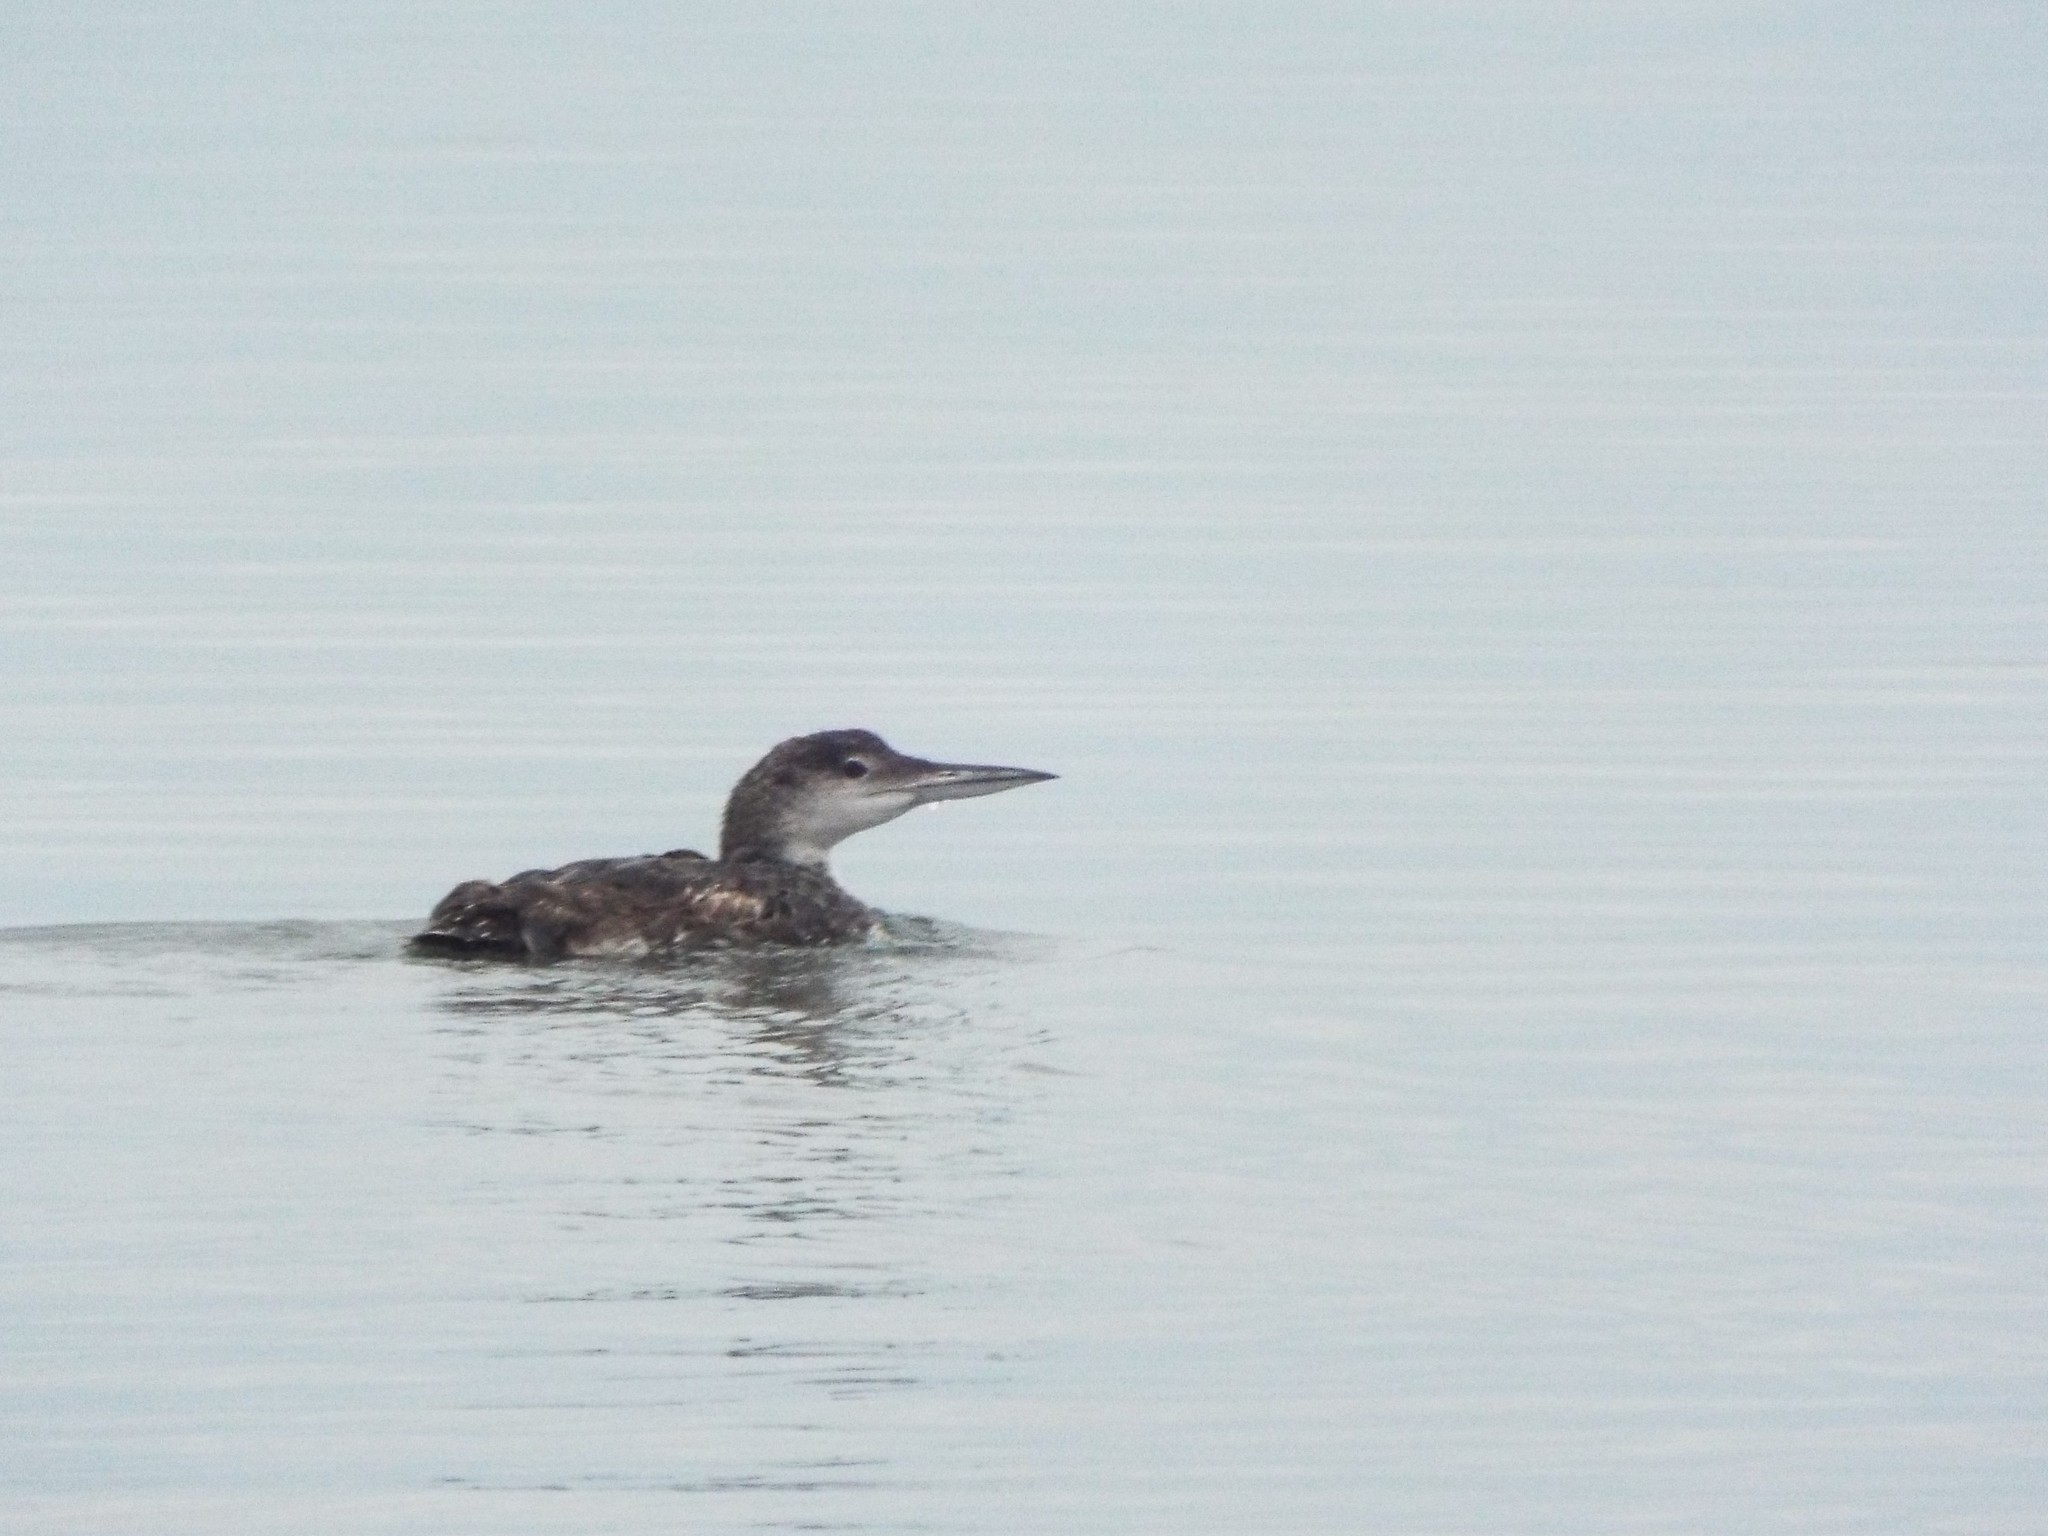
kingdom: Animalia
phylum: Chordata
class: Aves
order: Gaviiformes
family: Gaviidae
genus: Gavia
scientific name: Gavia immer
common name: Common loon
